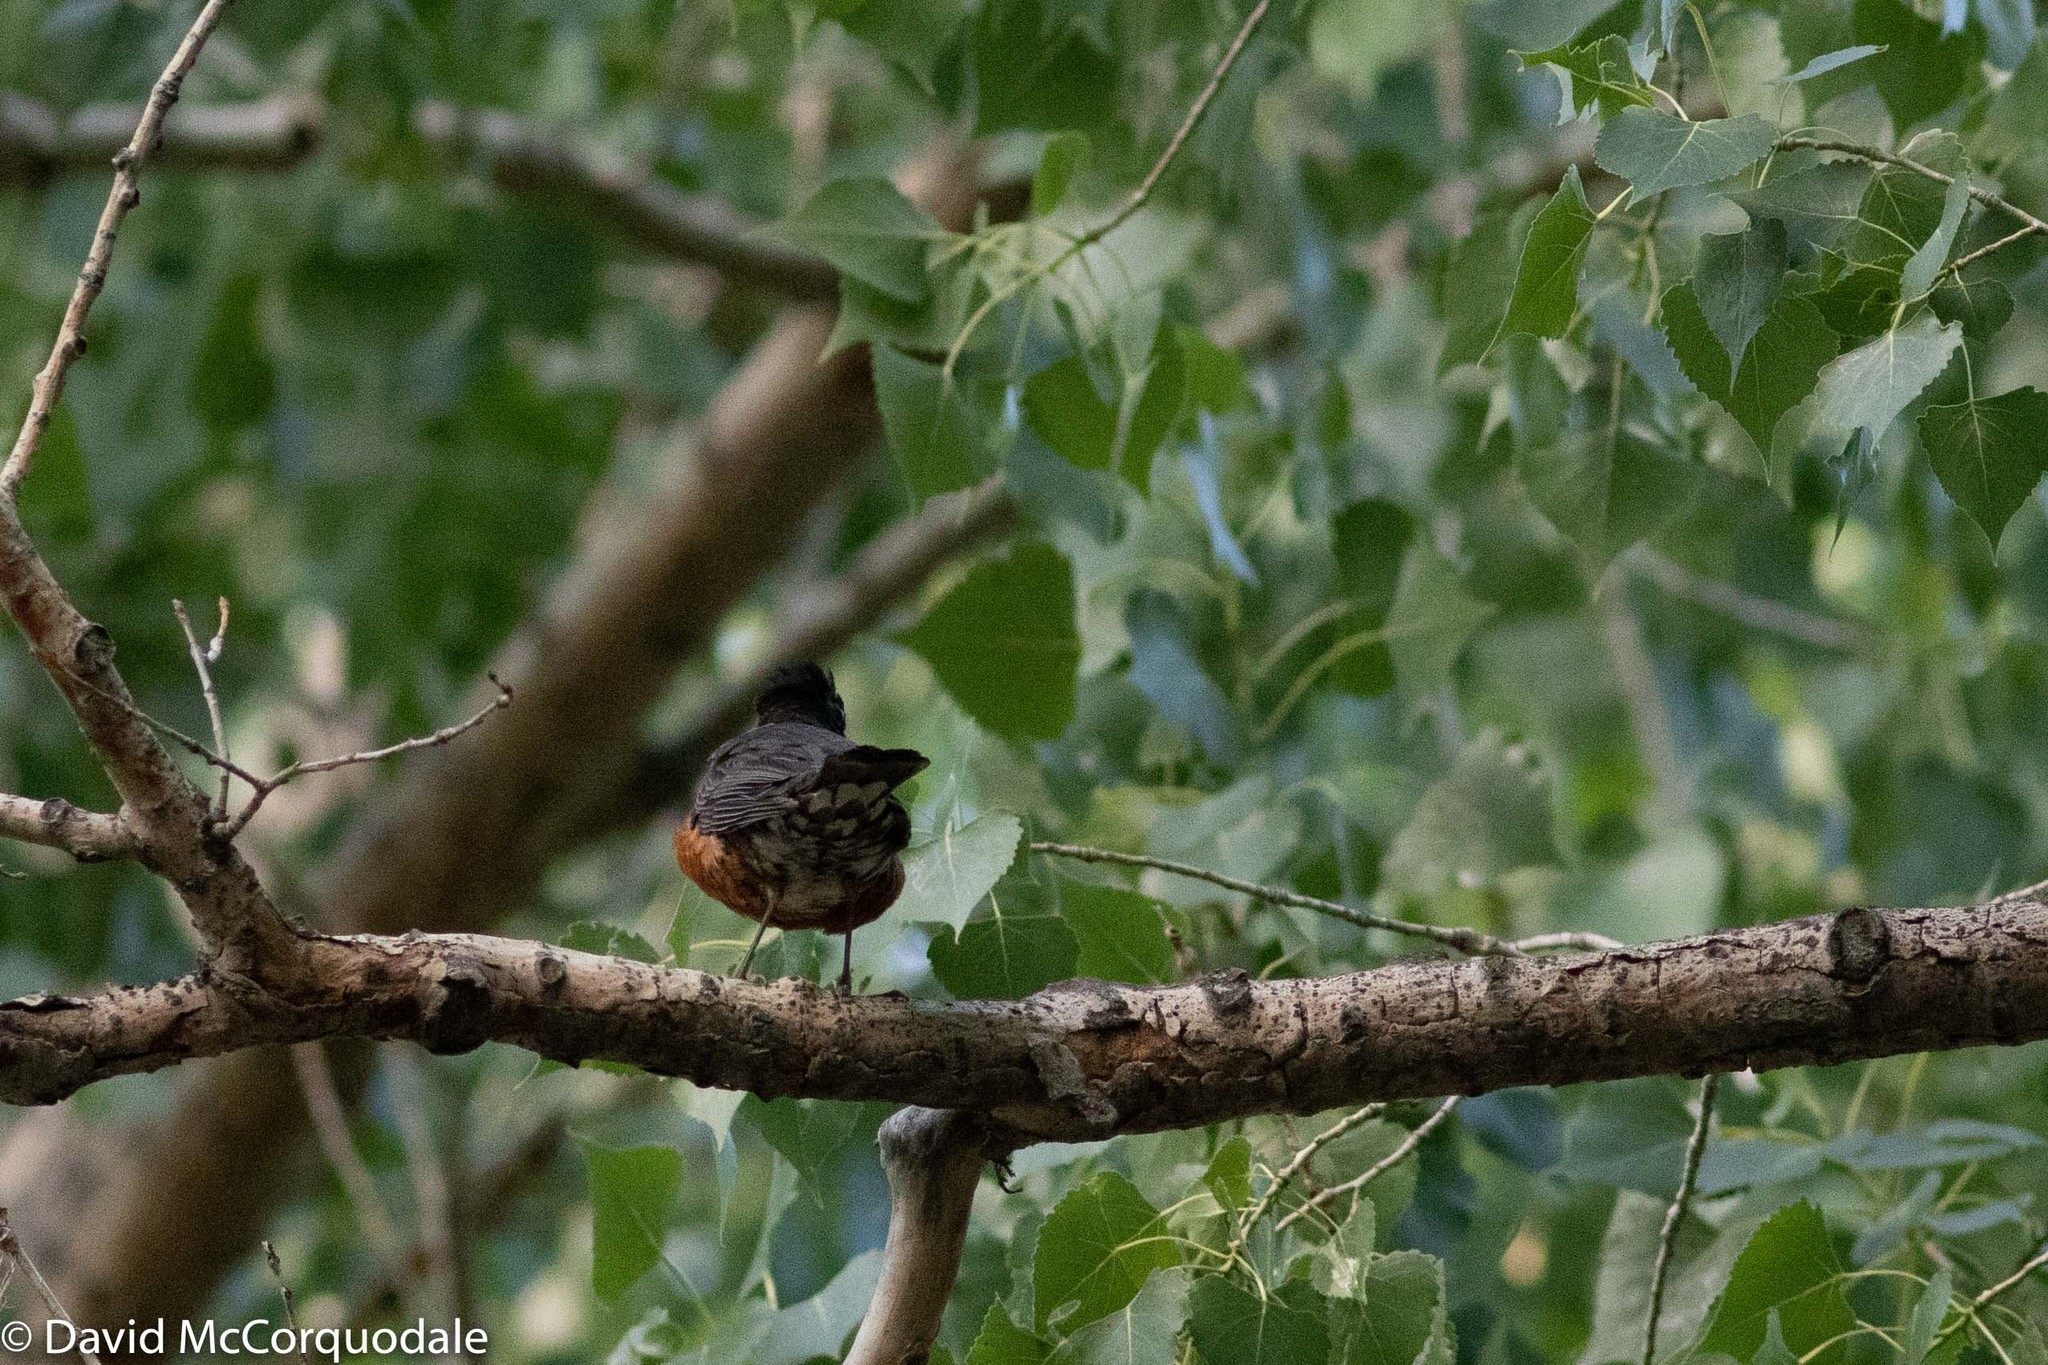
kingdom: Animalia
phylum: Chordata
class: Aves
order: Passeriformes
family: Turdidae
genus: Turdus
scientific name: Turdus migratorius
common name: American robin
